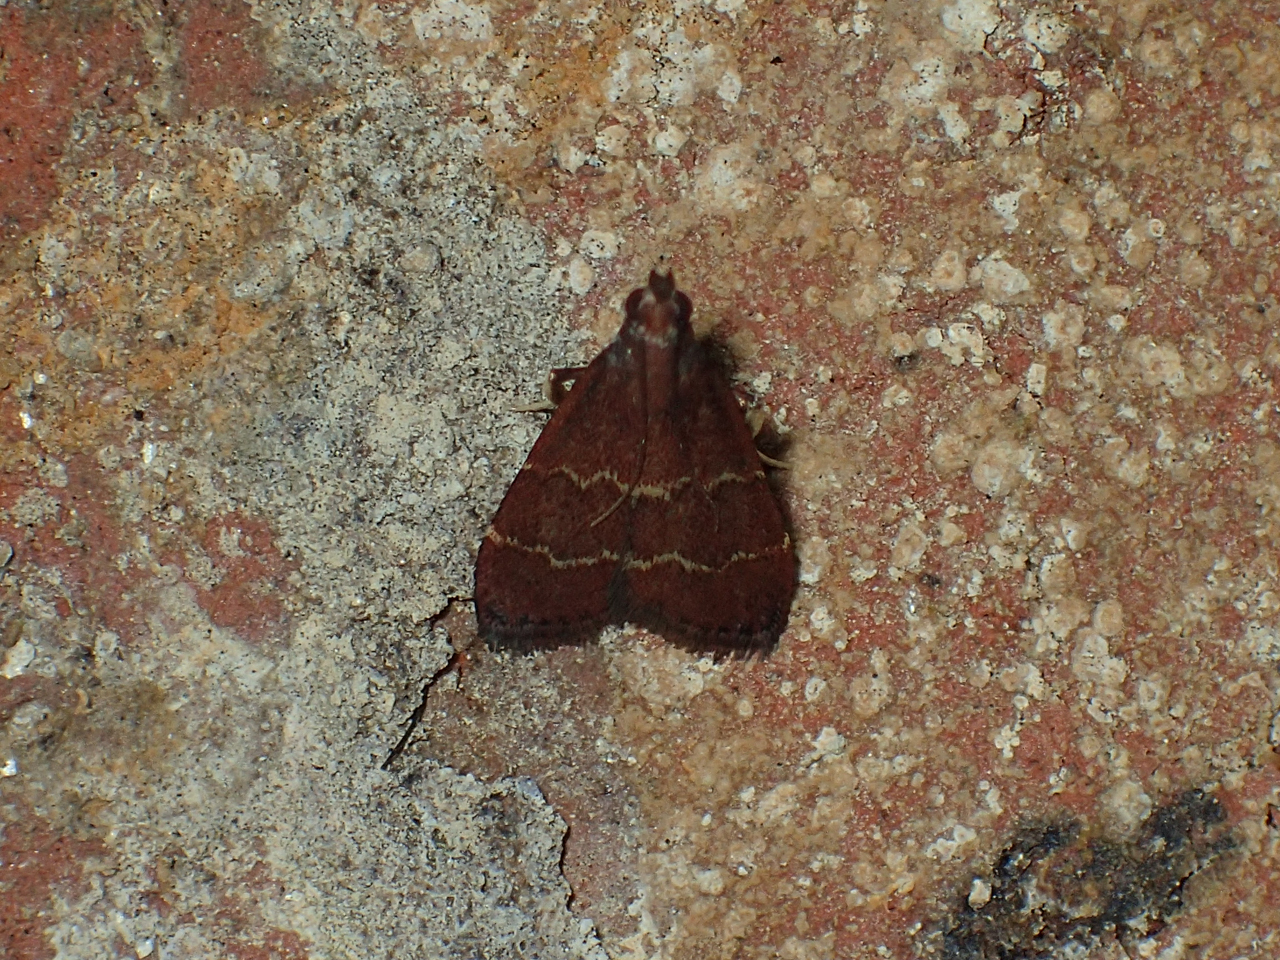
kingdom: Animalia
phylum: Arthropoda
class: Insecta
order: Lepidoptera
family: Pyralidae
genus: Arta
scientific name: Arta
